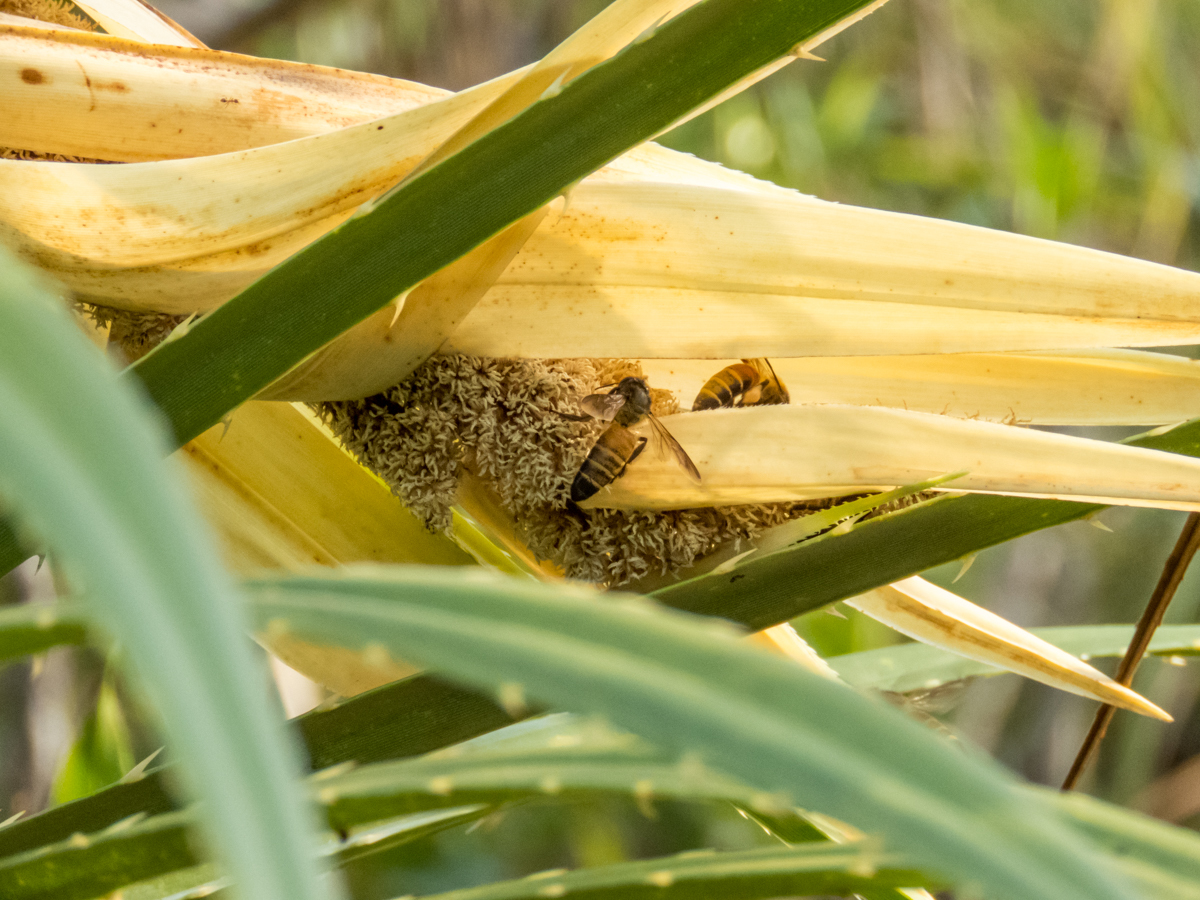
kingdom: Plantae
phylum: Tracheophyta
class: Liliopsida
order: Pandanales
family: Pandanaceae
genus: Pandanus
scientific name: Pandanus odorifer
